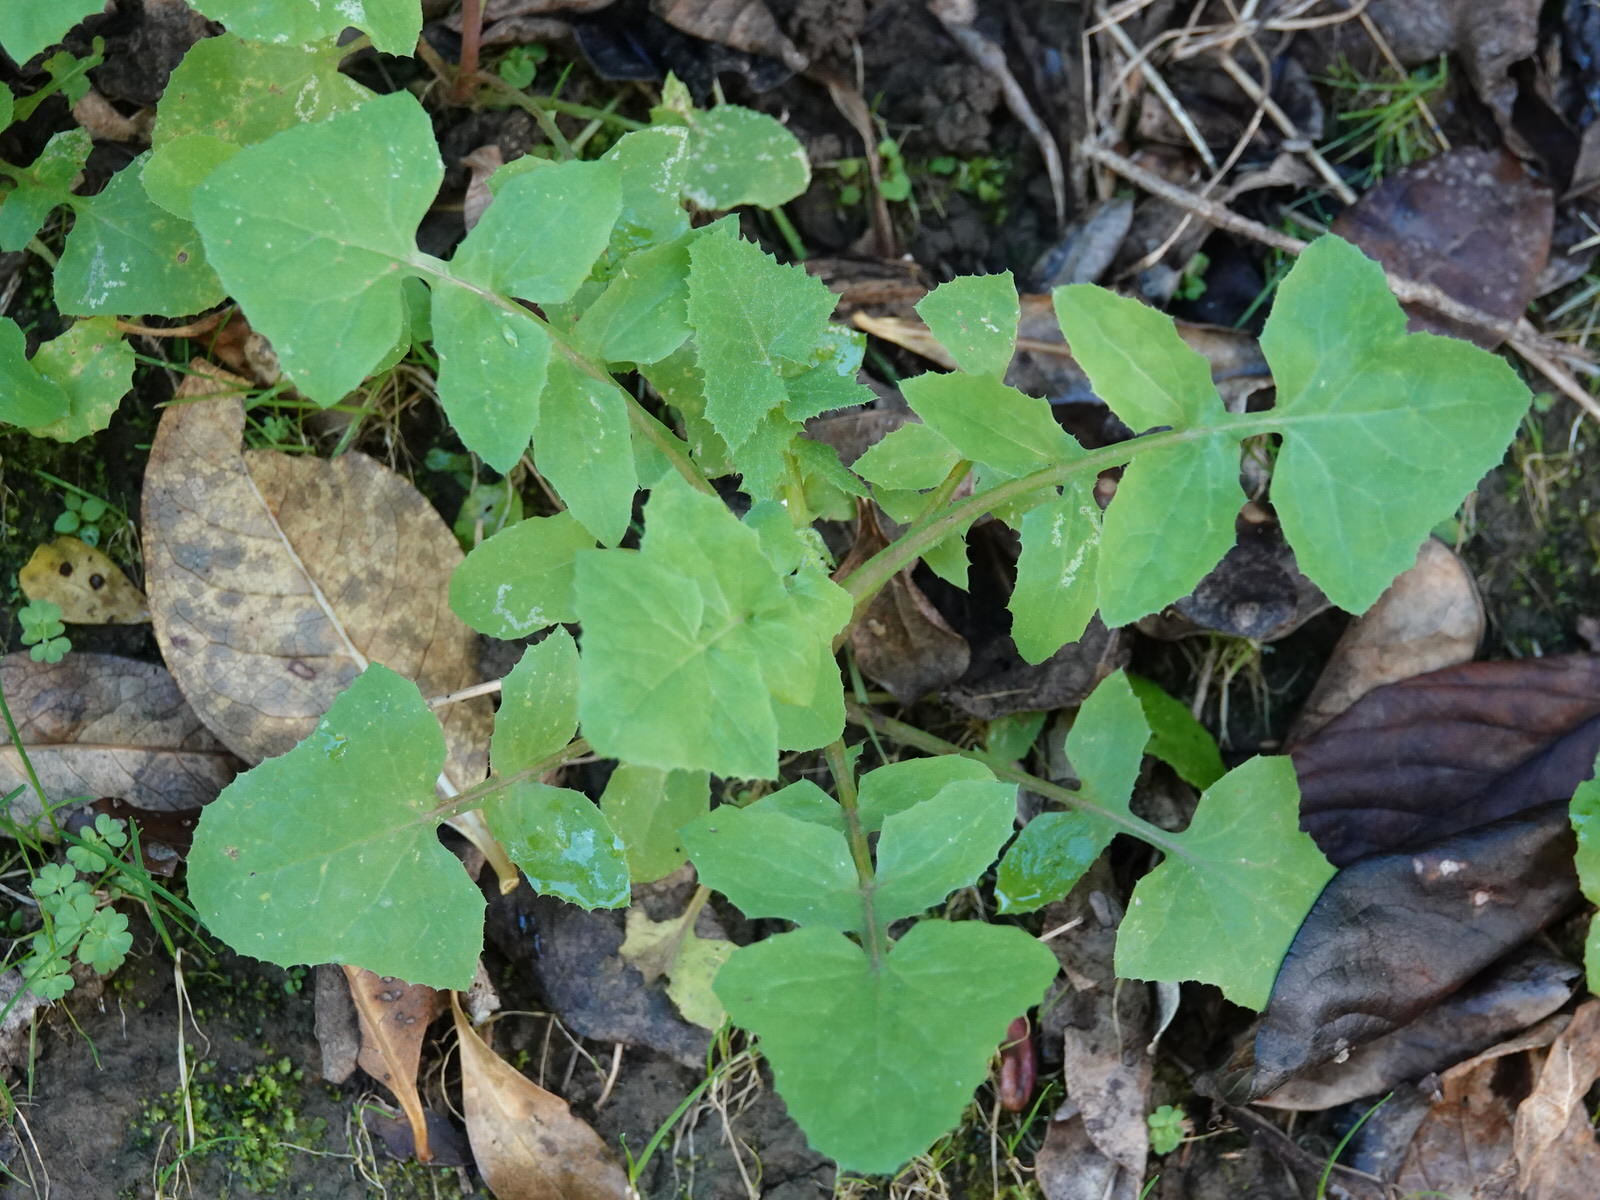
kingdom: Plantae
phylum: Tracheophyta
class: Magnoliopsida
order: Asterales
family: Asteraceae
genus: Sonchus
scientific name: Sonchus oleraceus
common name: Common sowthistle
